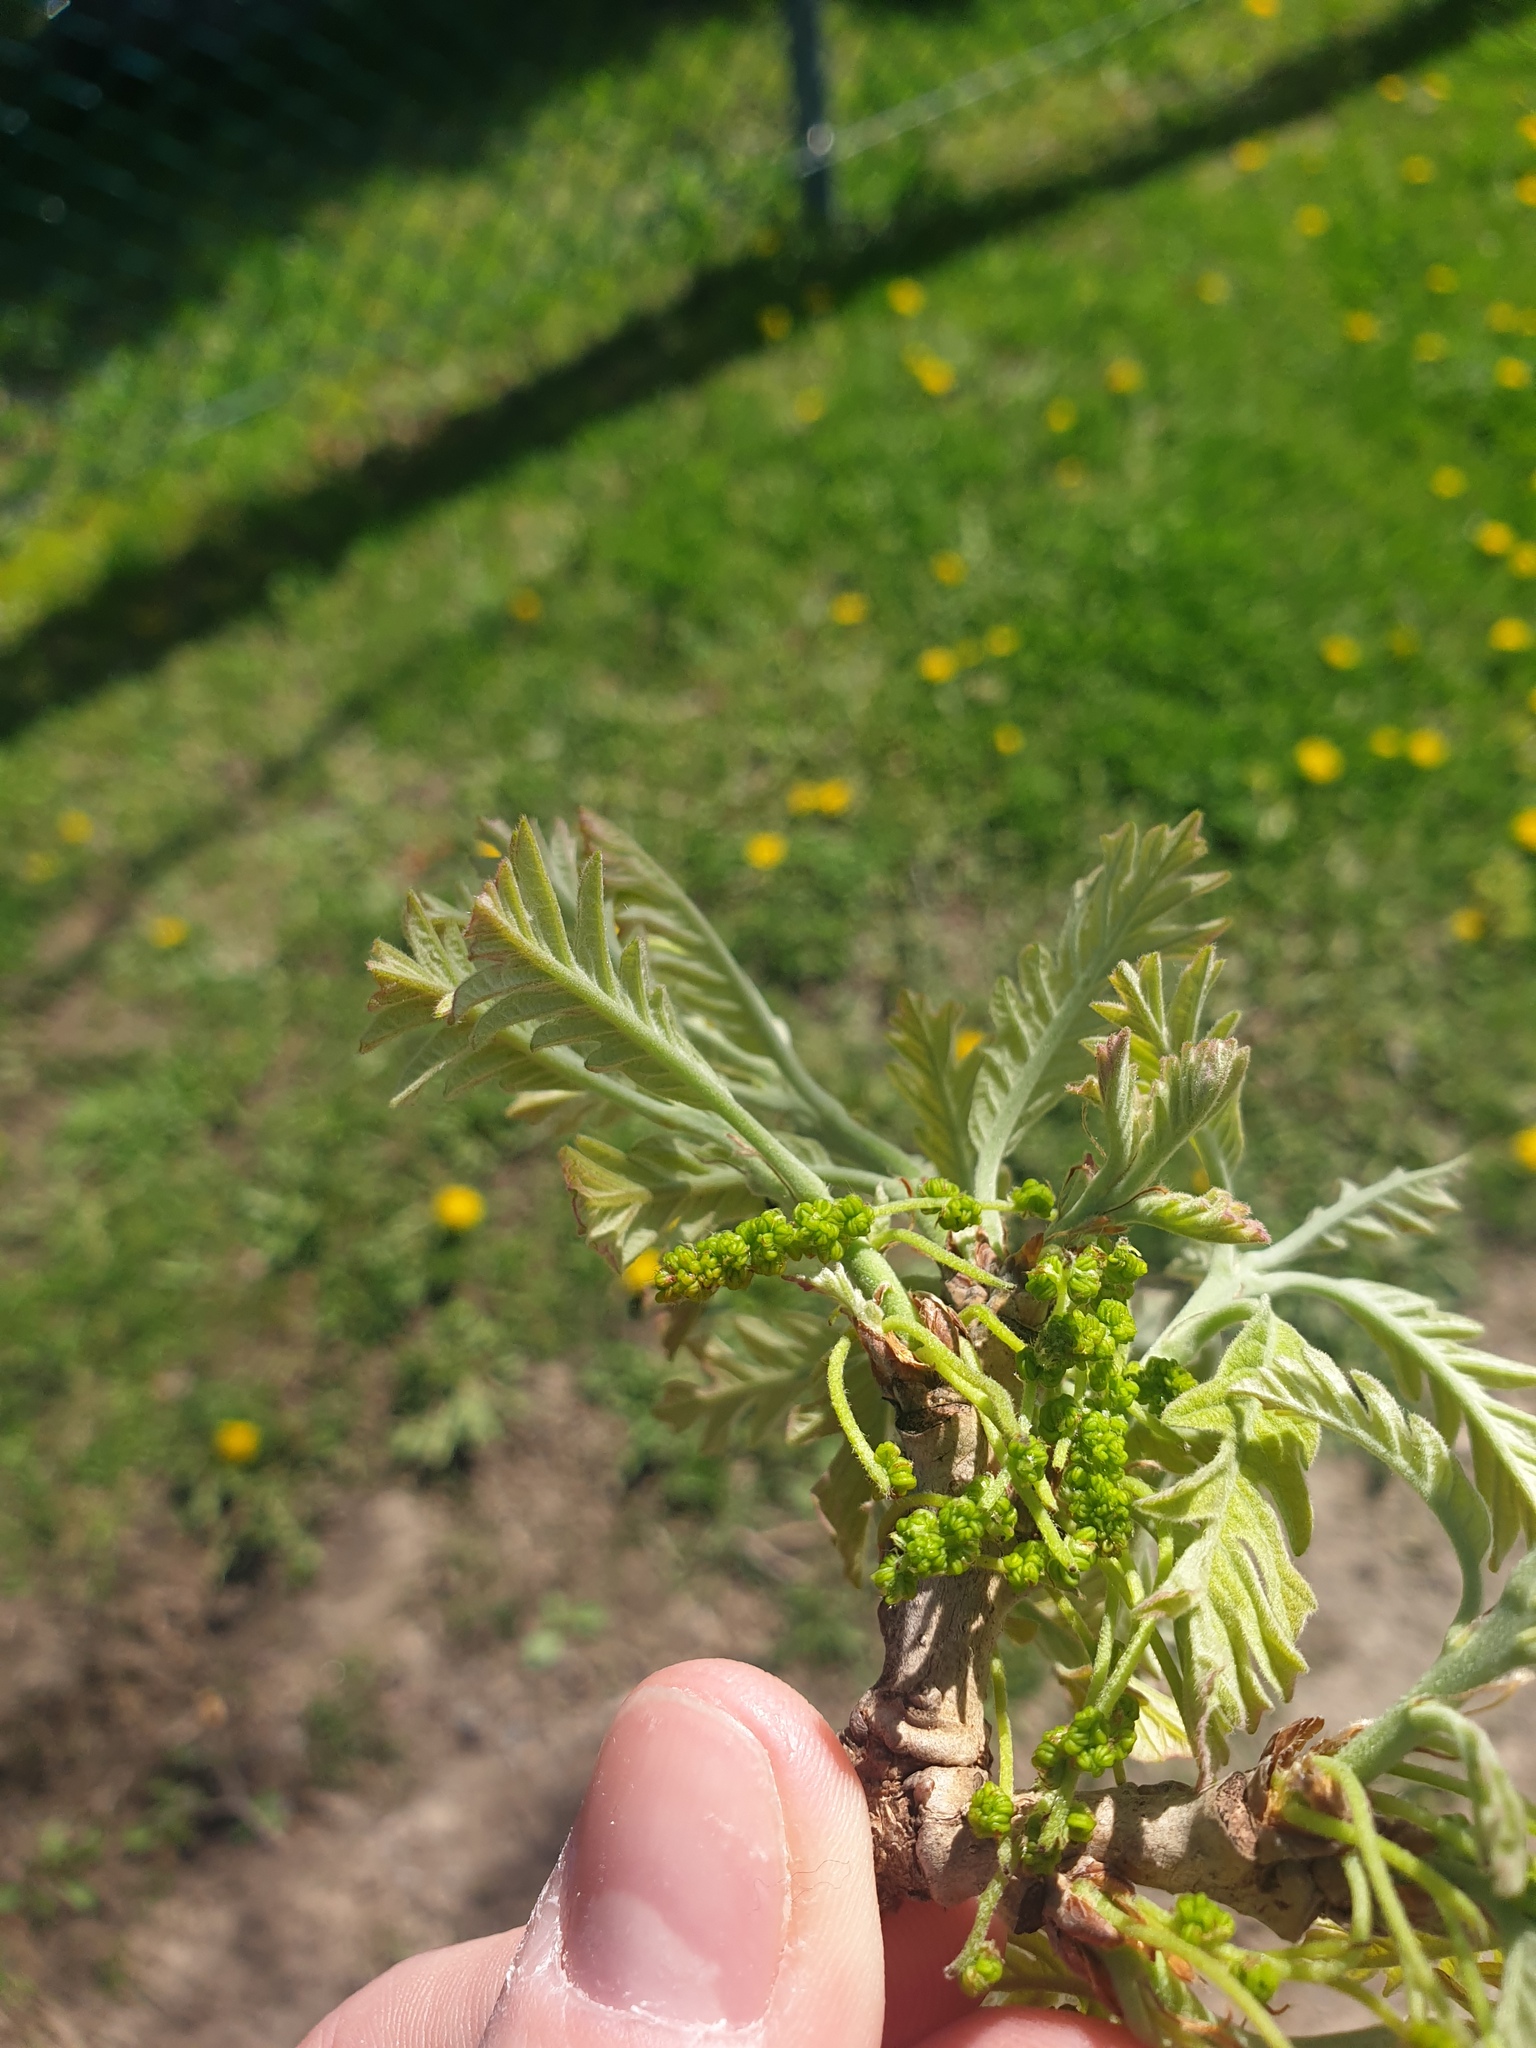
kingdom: Plantae
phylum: Tracheophyta
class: Magnoliopsida
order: Fagales
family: Fagaceae
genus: Quercus
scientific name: Quercus macrocarpa
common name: Bur oak
